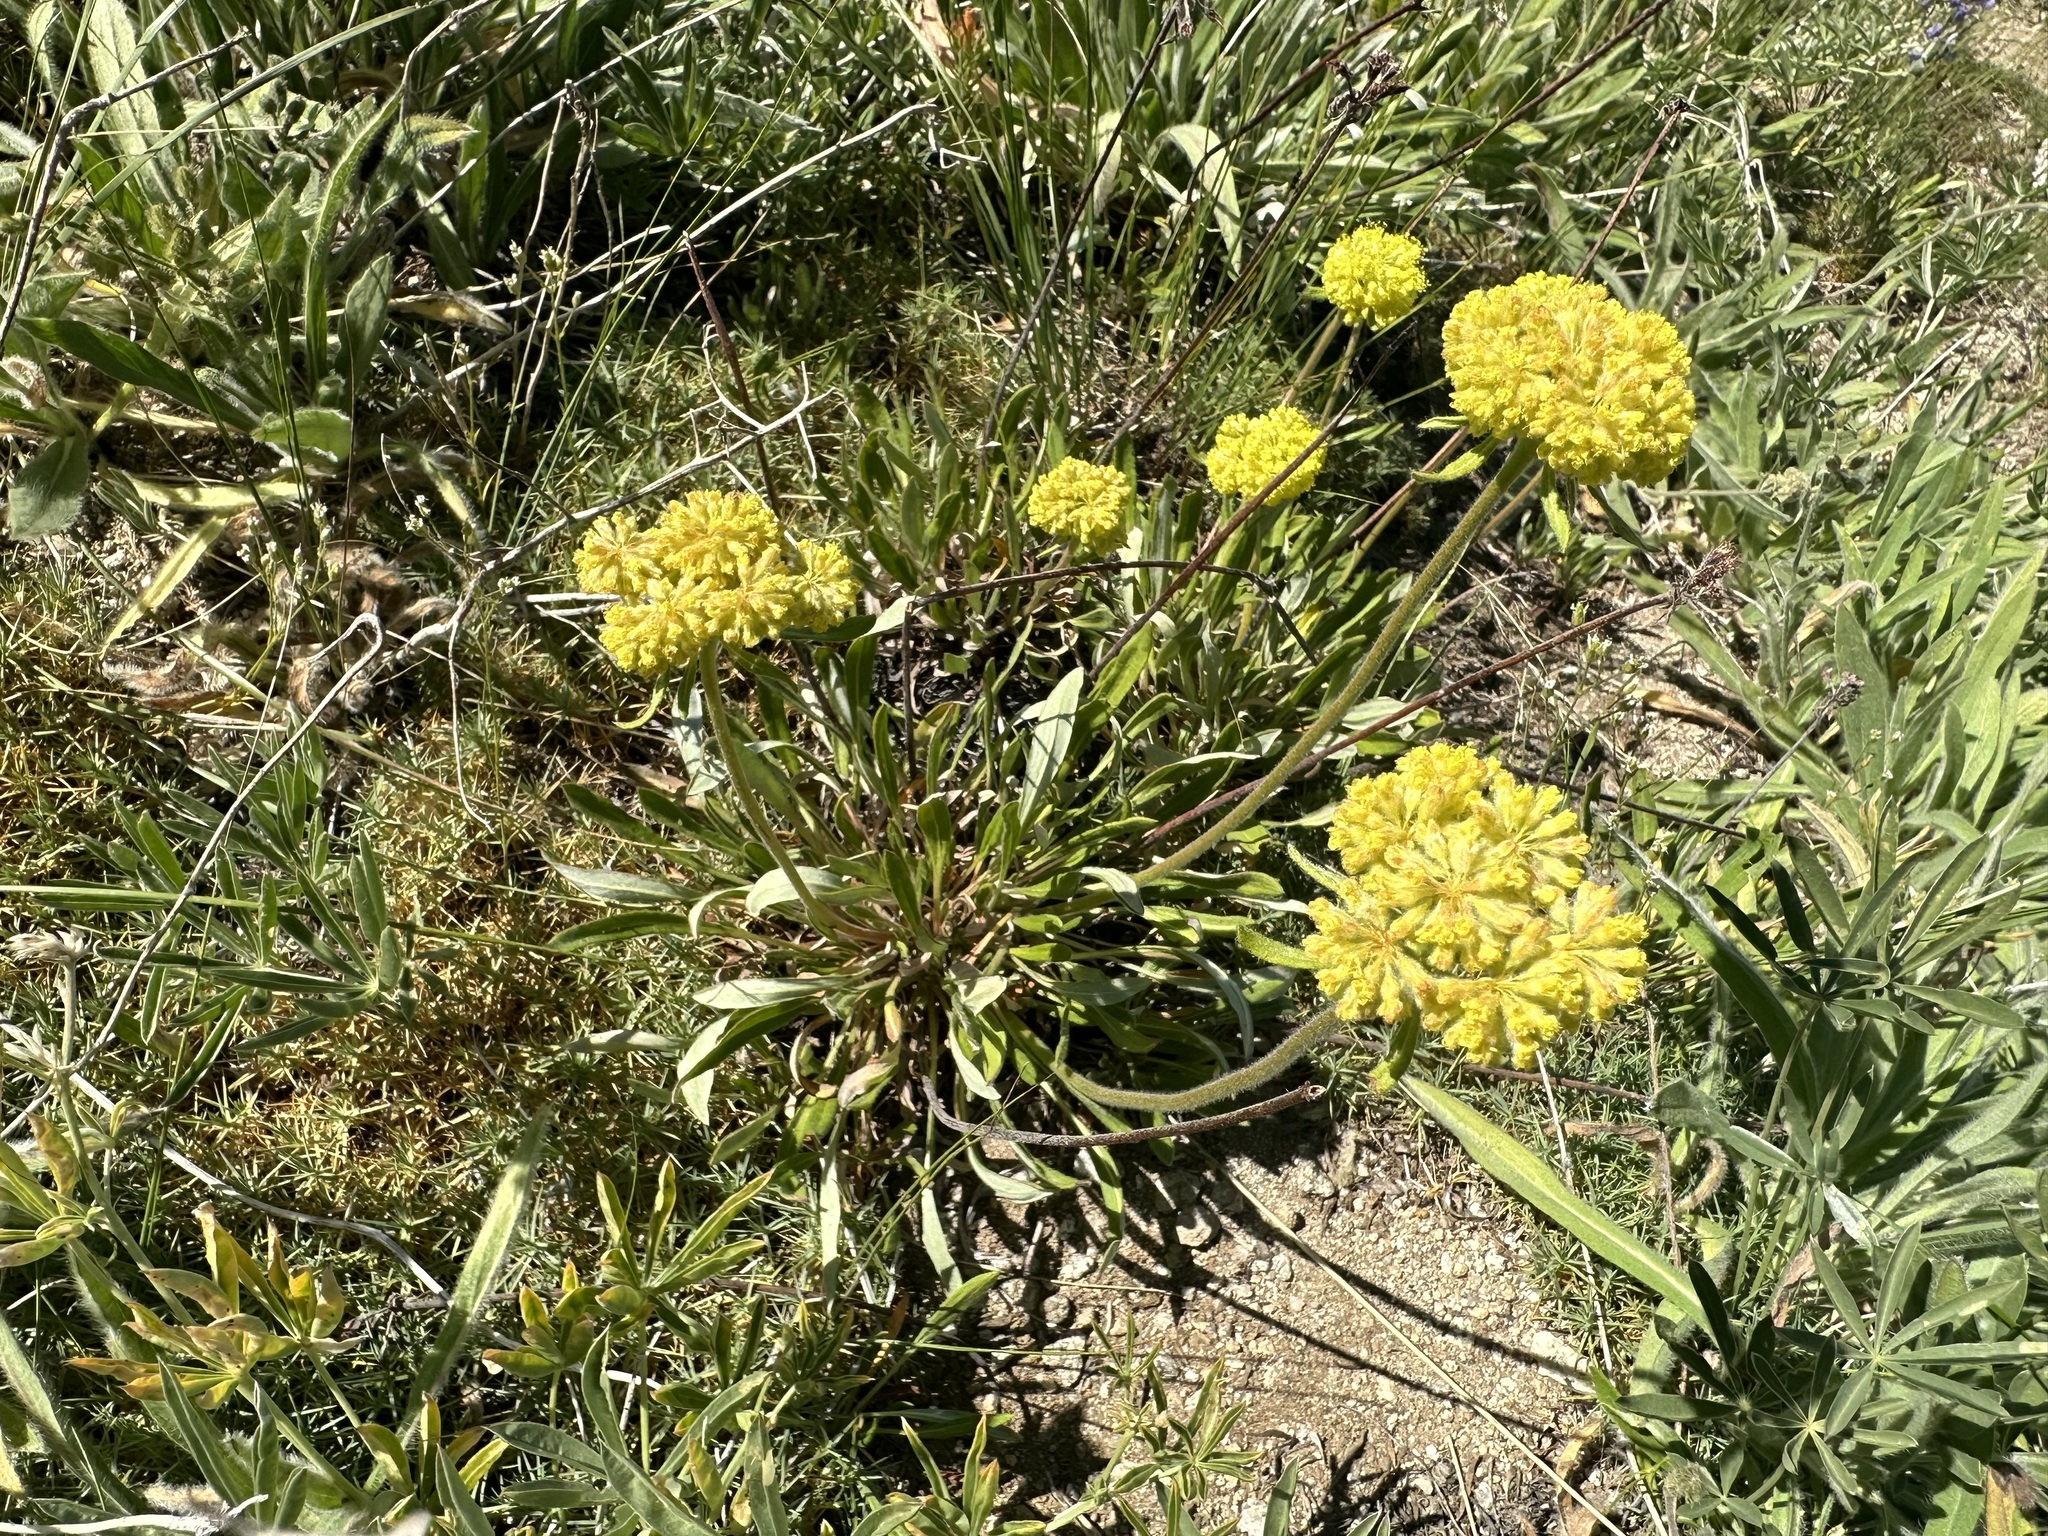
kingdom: Plantae
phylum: Tracheophyta
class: Magnoliopsida
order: Caryophyllales
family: Polygonaceae
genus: Eriogonum
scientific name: Eriogonum flavum
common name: Alpine golden wild buckwheat
